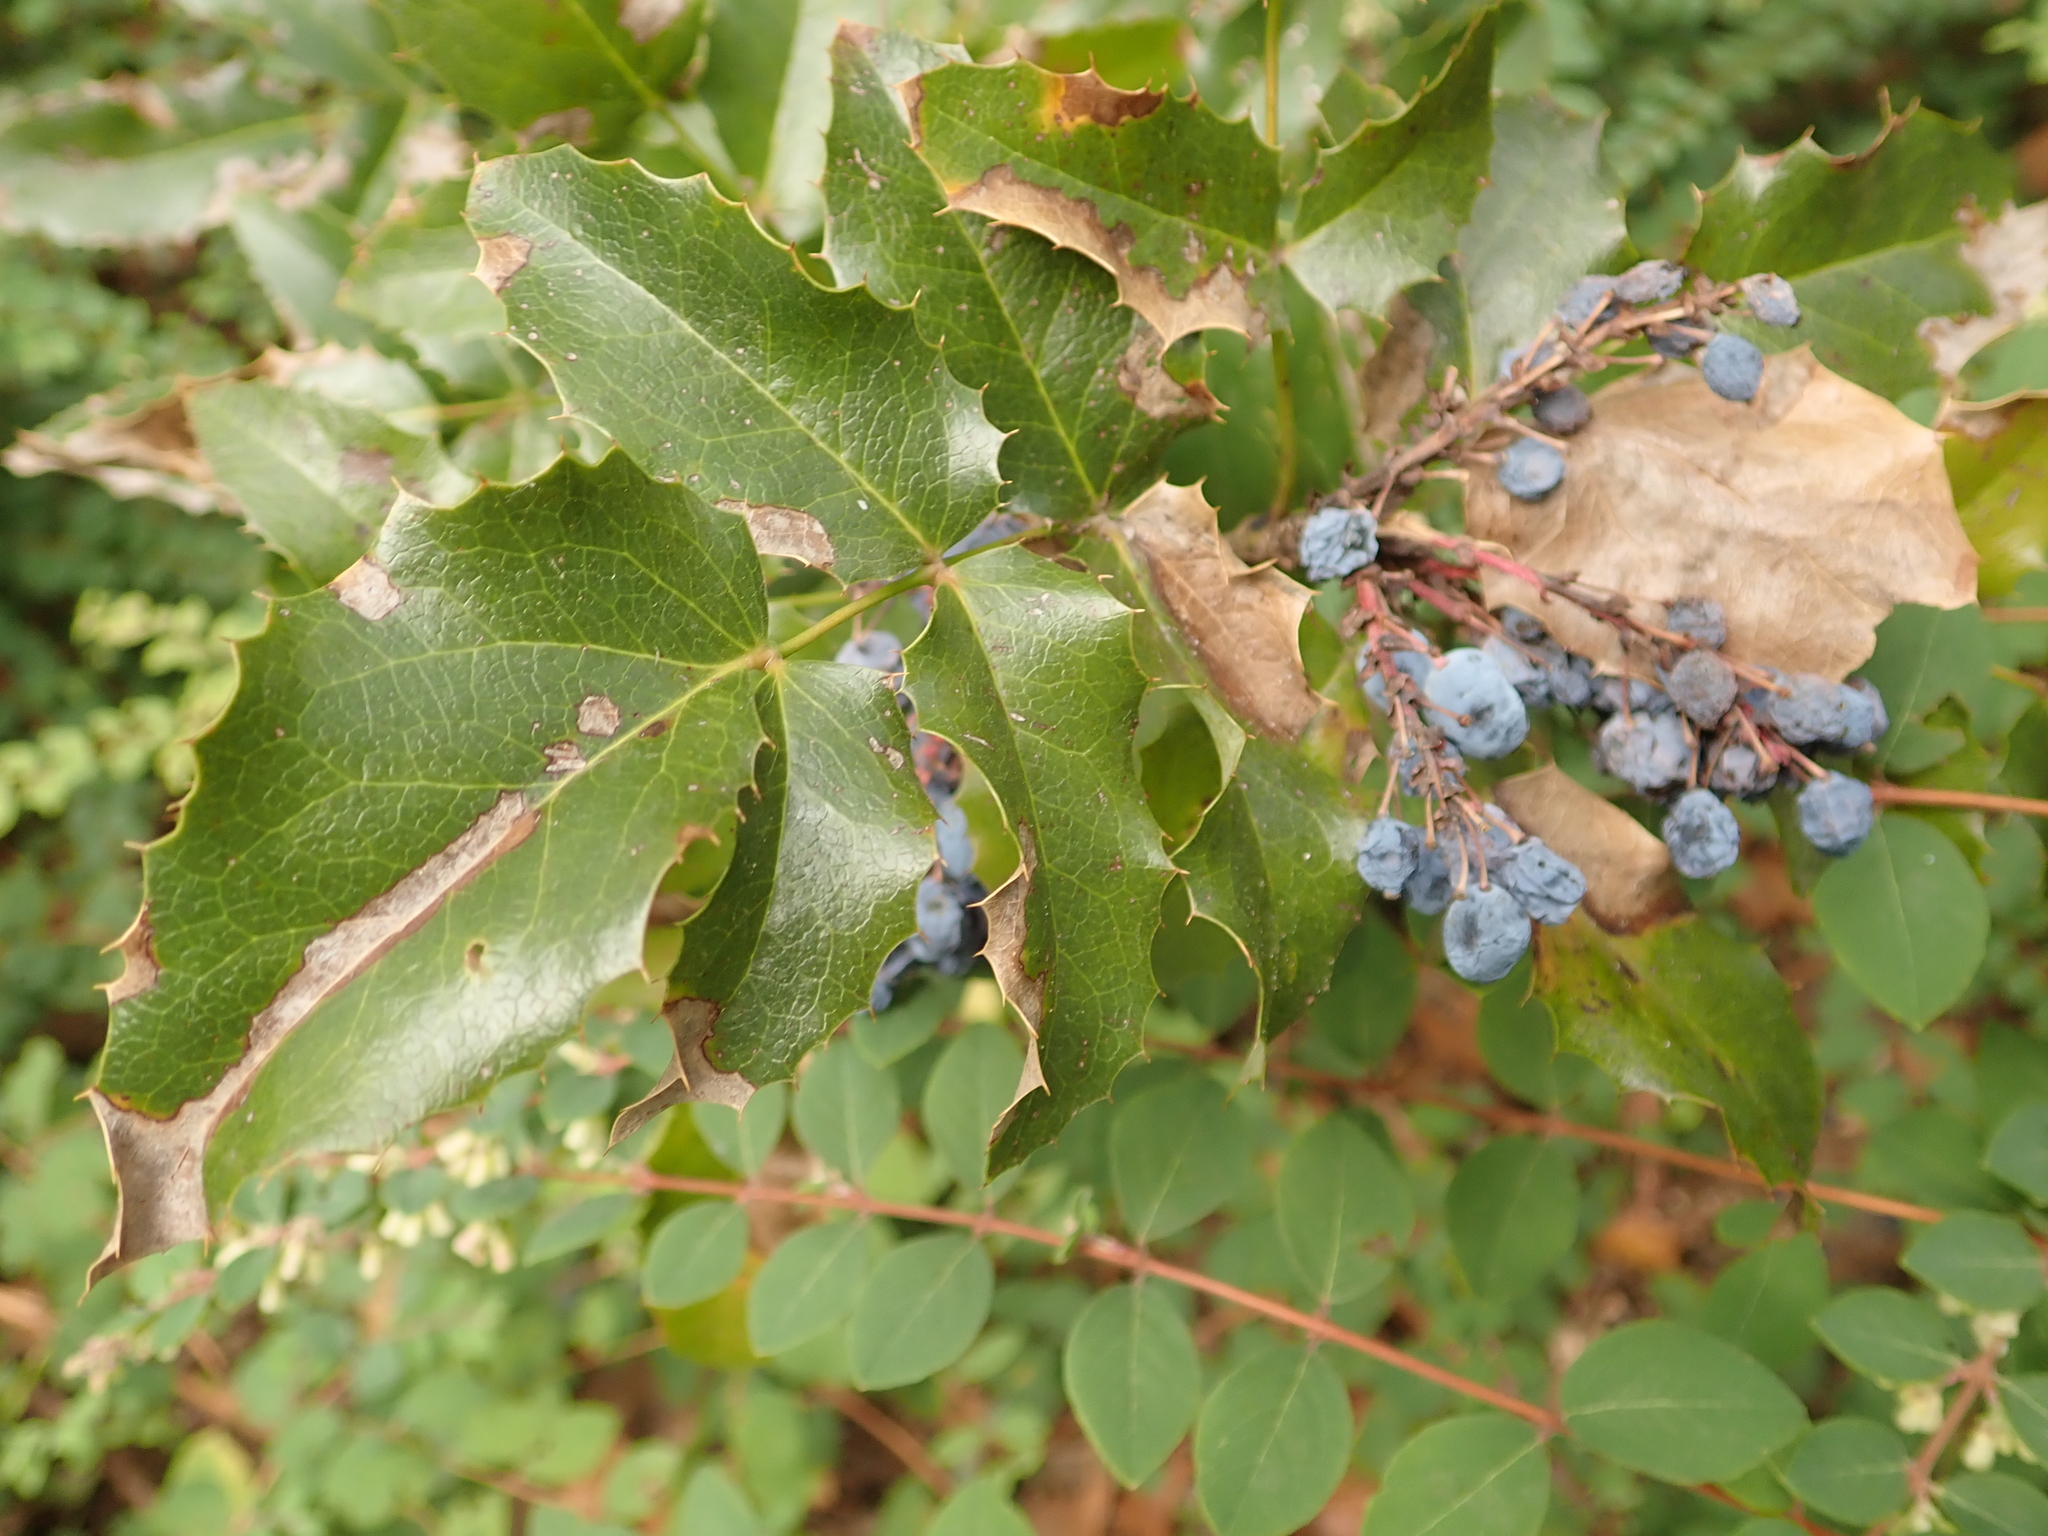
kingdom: Plantae
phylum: Tracheophyta
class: Magnoliopsida
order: Ranunculales
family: Berberidaceae
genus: Mahonia
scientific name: Mahonia aquifolium
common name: Oregon-grape
